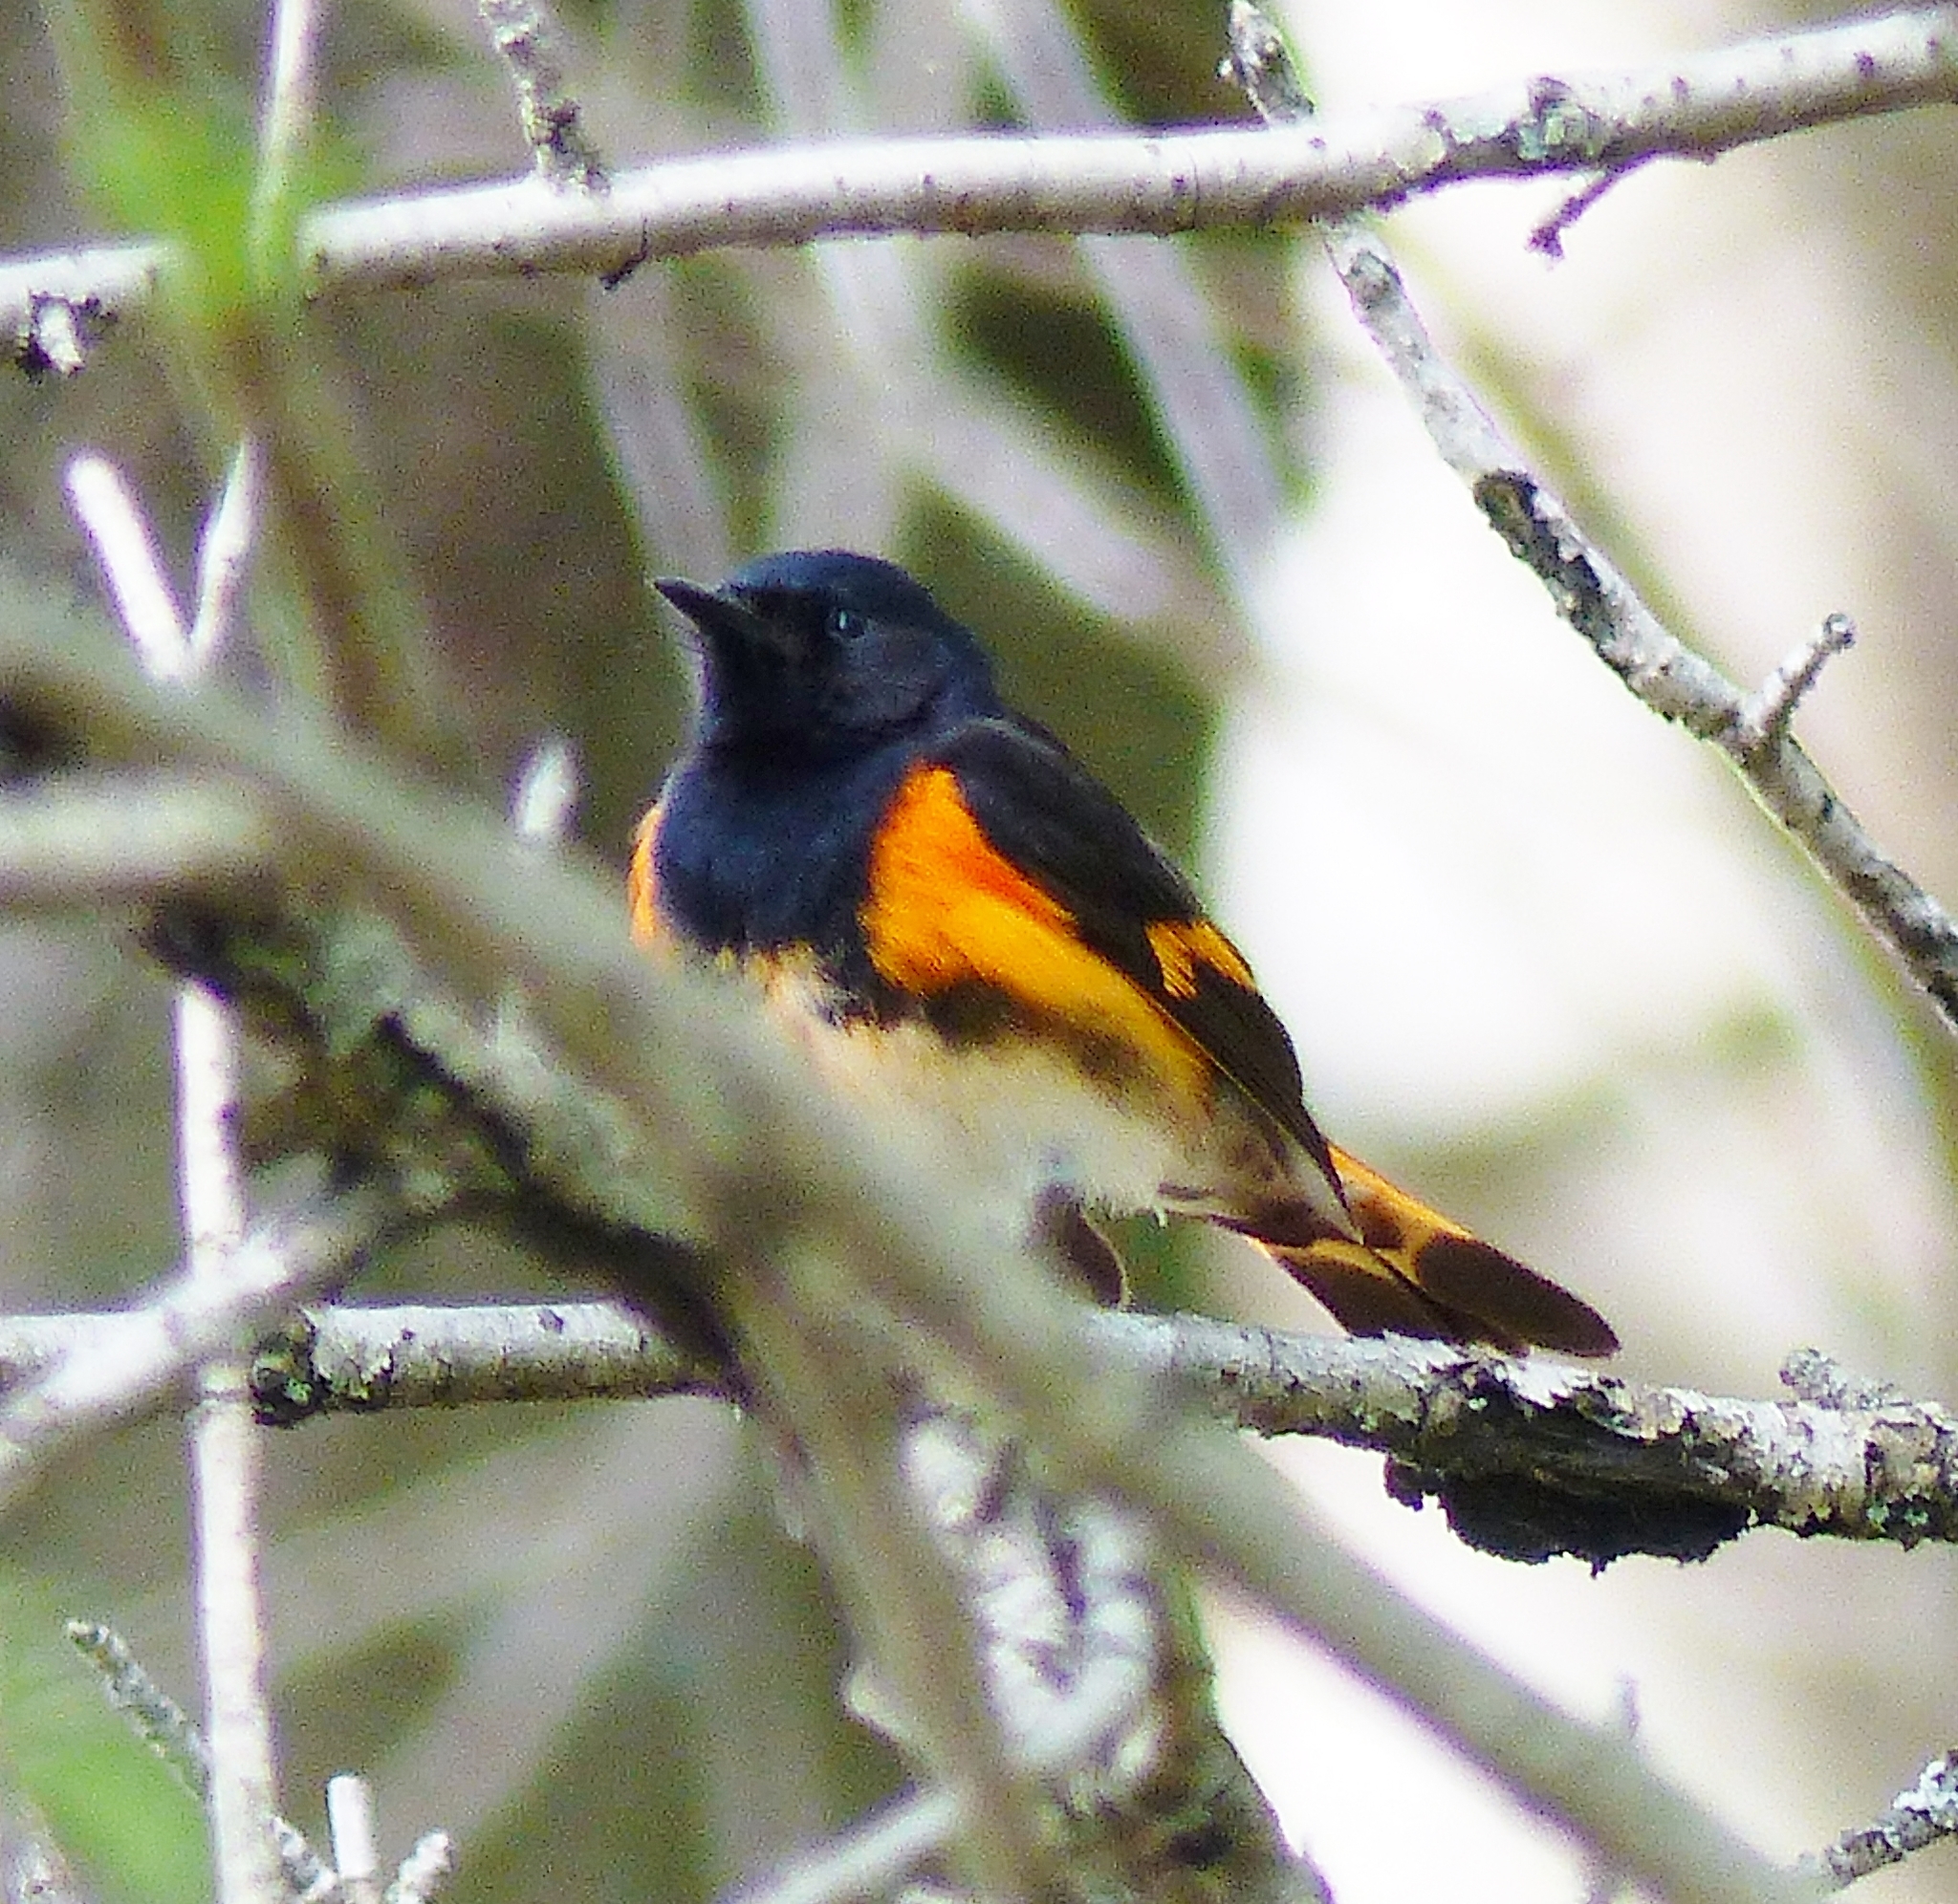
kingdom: Animalia
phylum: Chordata
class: Aves
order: Passeriformes
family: Parulidae
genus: Setophaga
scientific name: Setophaga ruticilla
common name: American redstart
